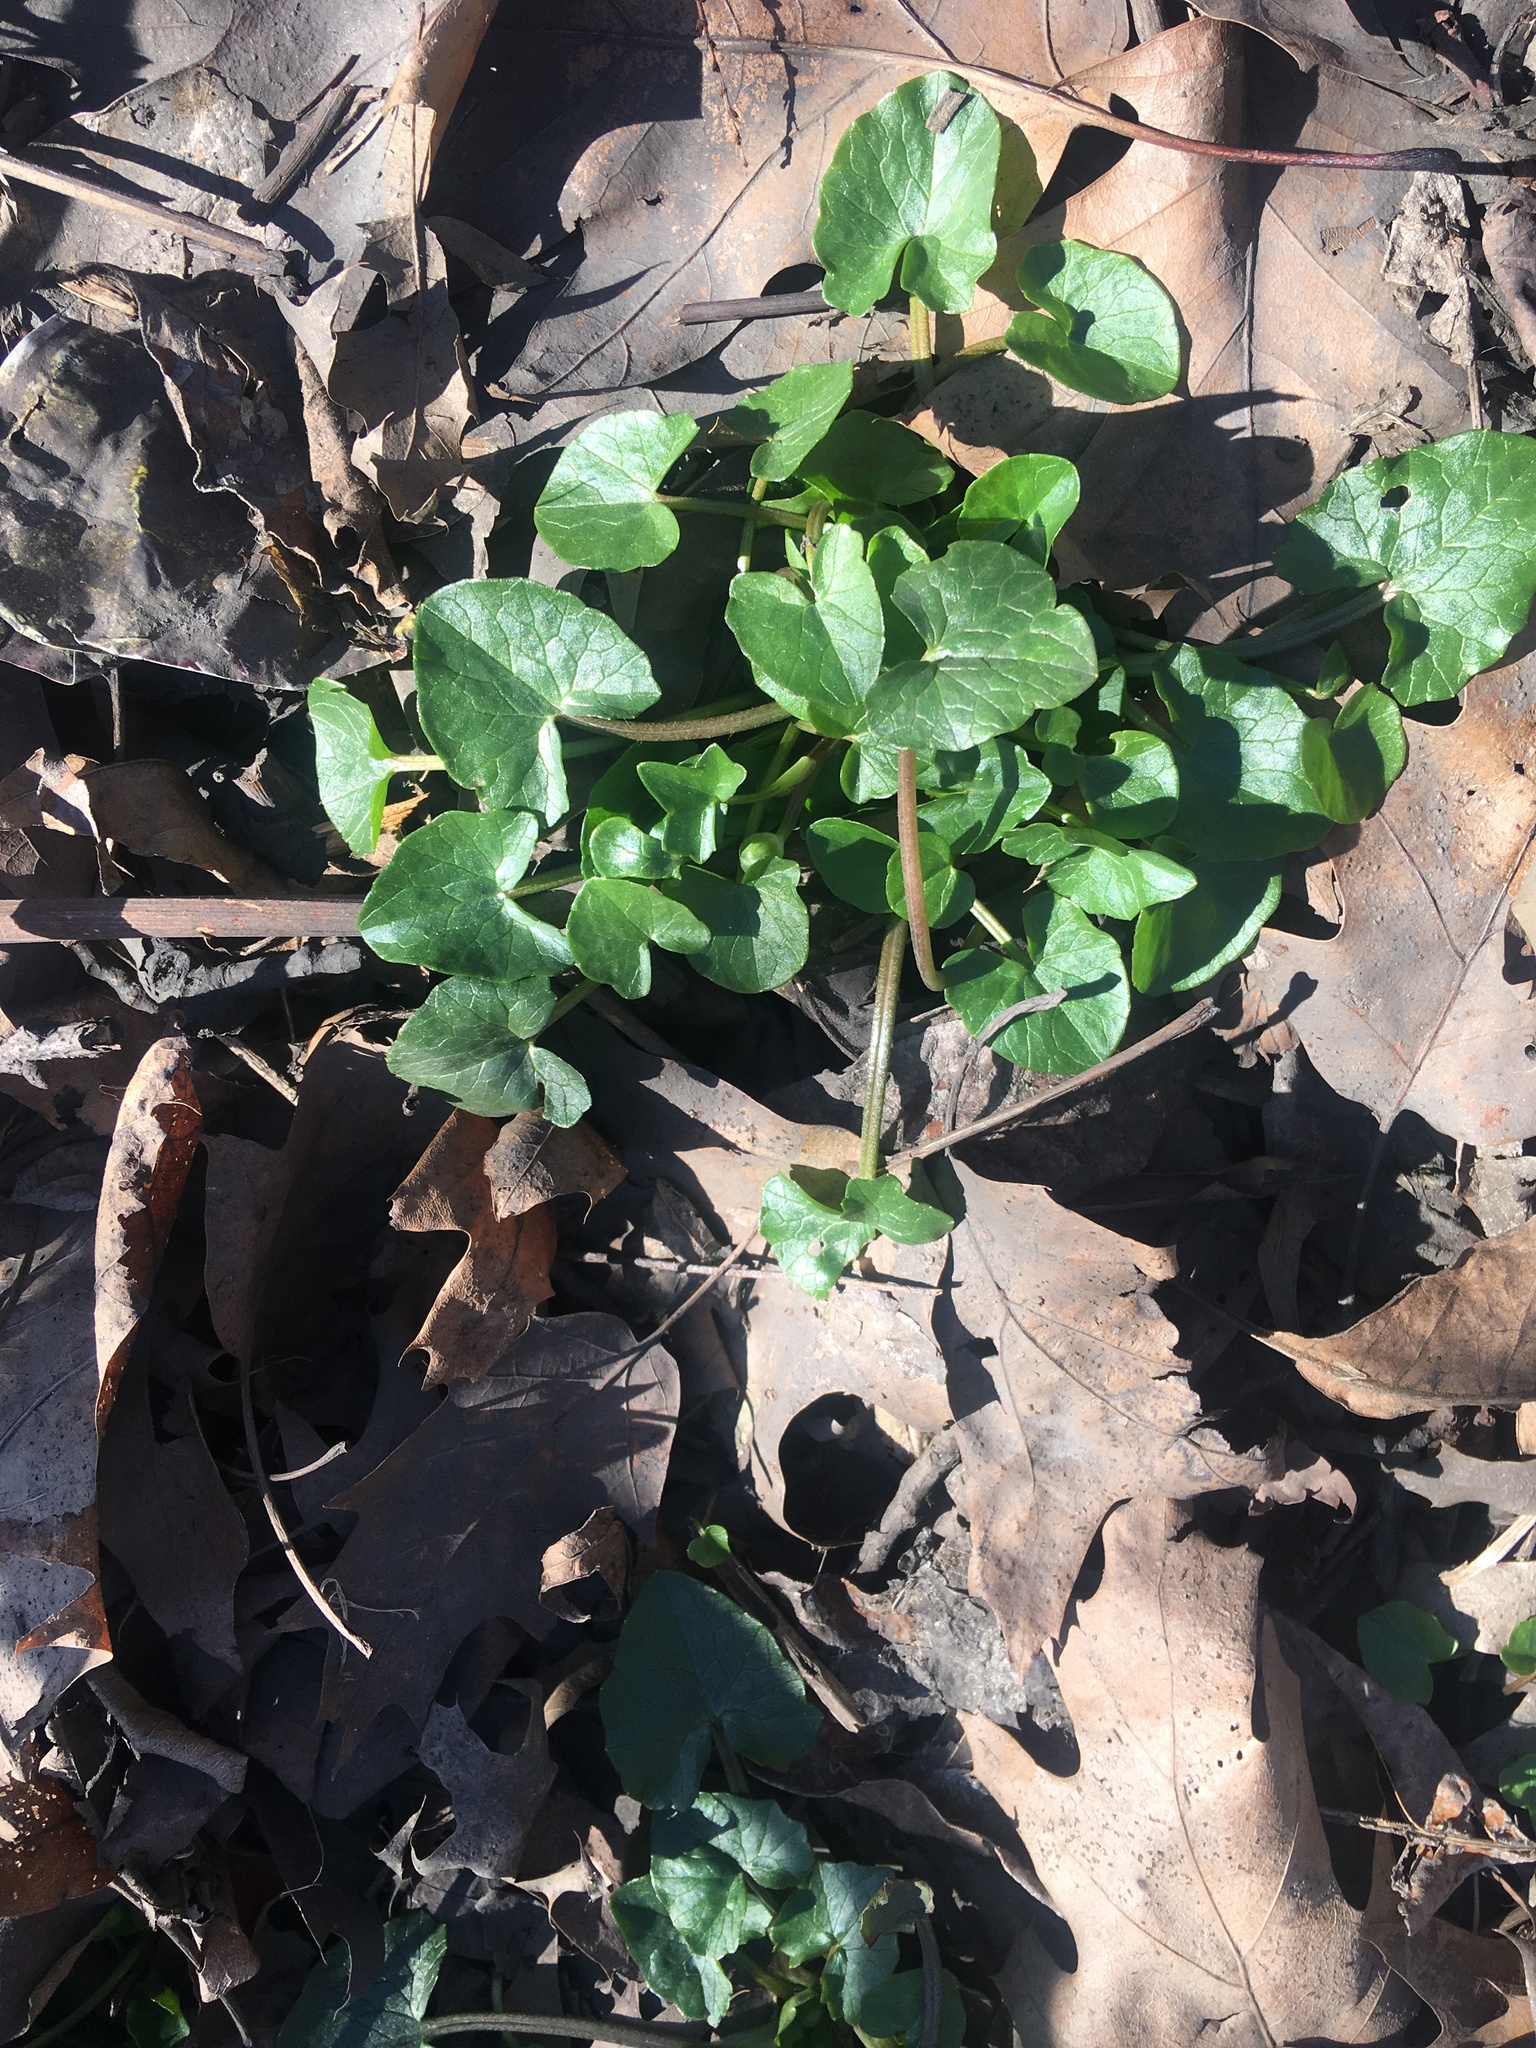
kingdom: Plantae
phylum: Tracheophyta
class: Magnoliopsida
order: Ranunculales
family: Ranunculaceae
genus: Ficaria
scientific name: Ficaria verna
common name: Lesser celandine
